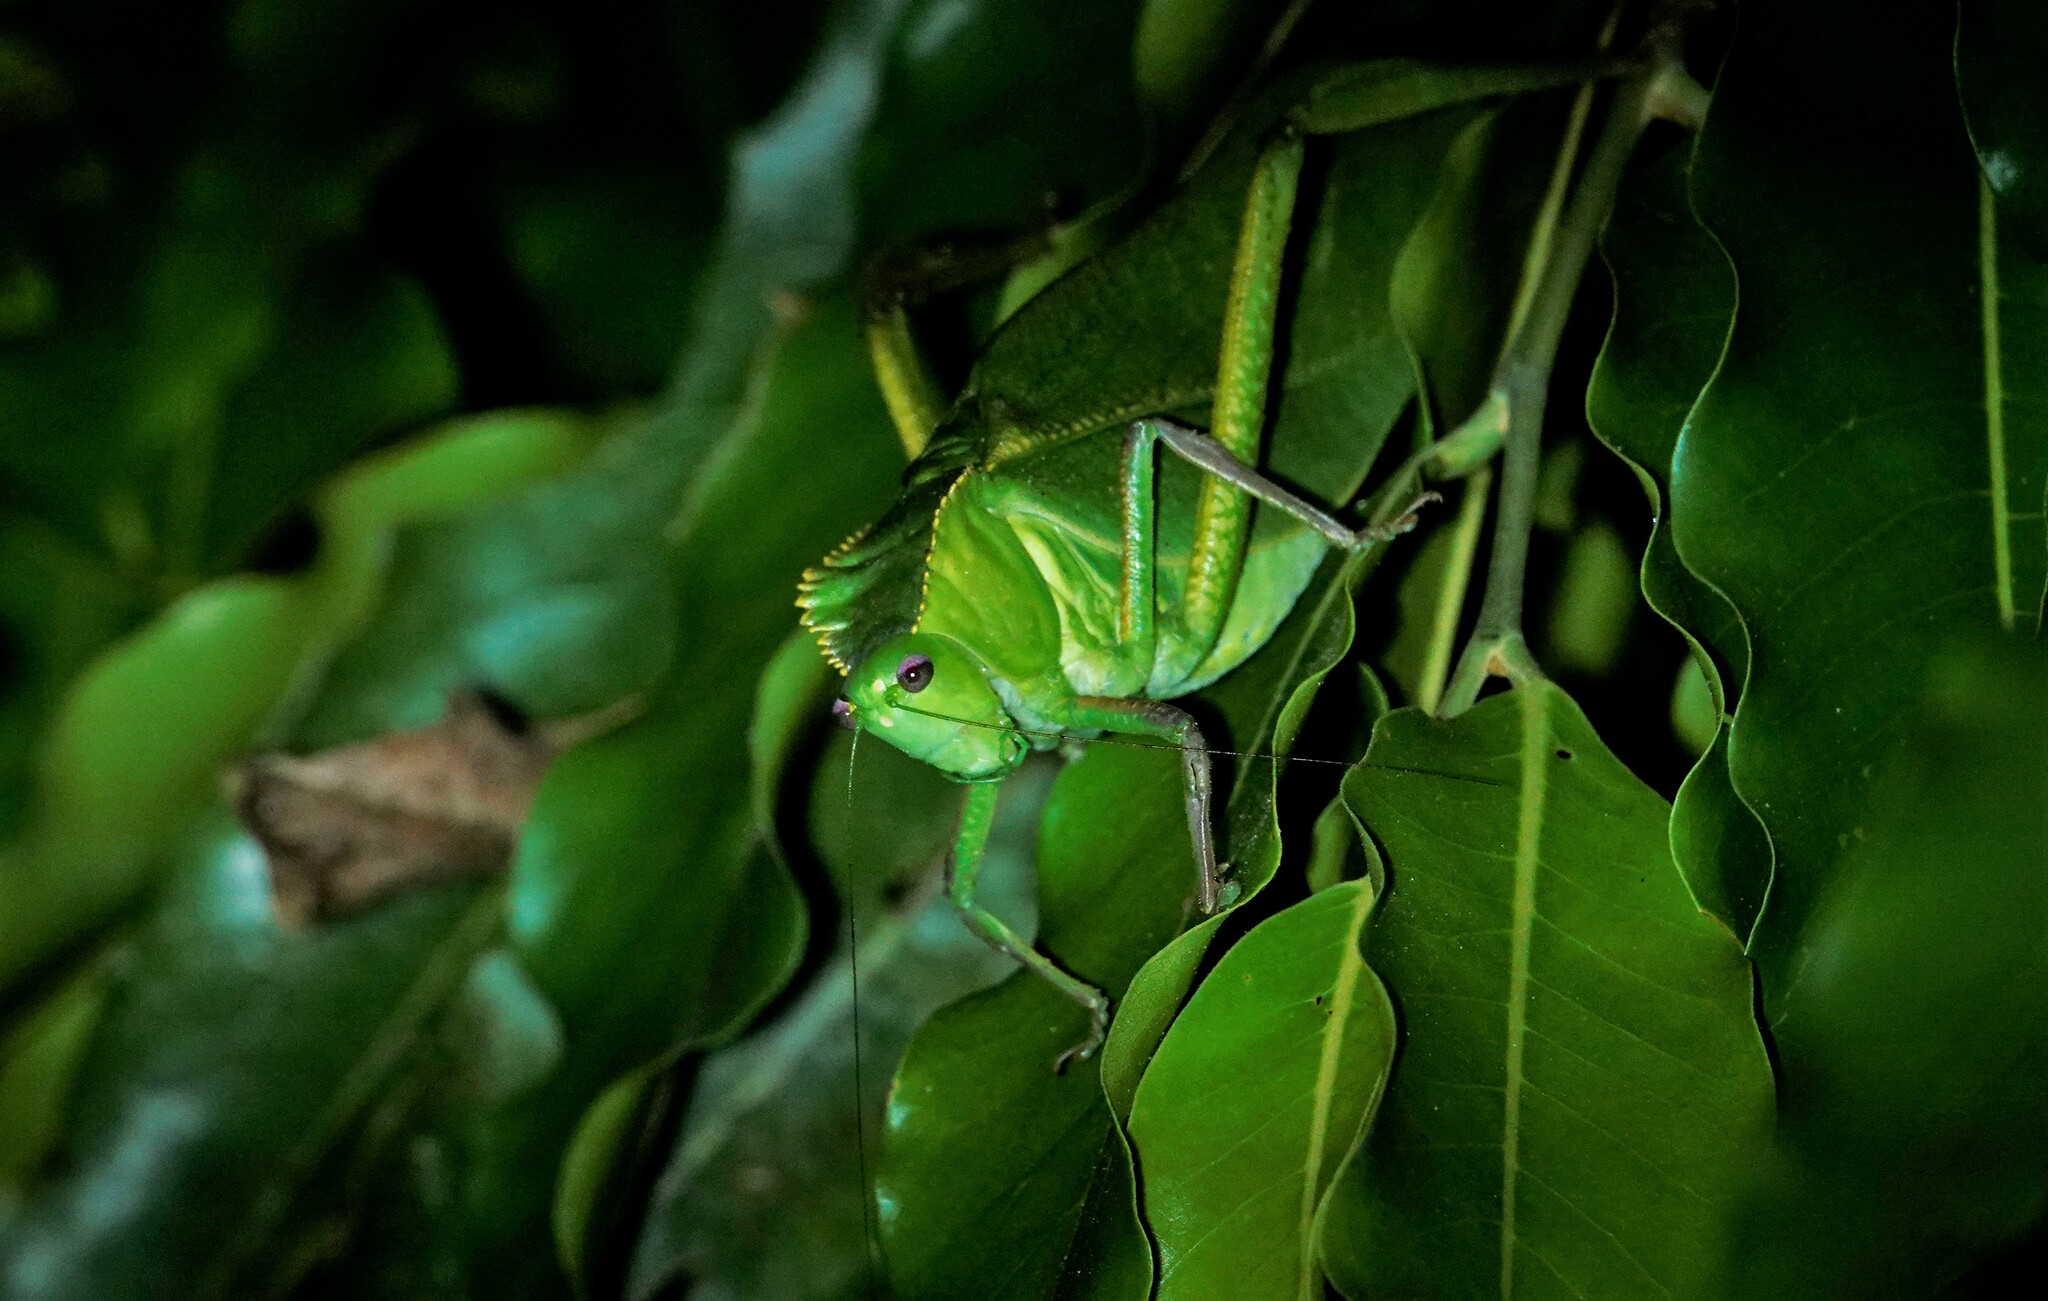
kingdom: Animalia
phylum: Arthropoda
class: Insecta
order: Orthoptera
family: Tettigoniidae
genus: Steirodon
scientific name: Steirodon dentatum
